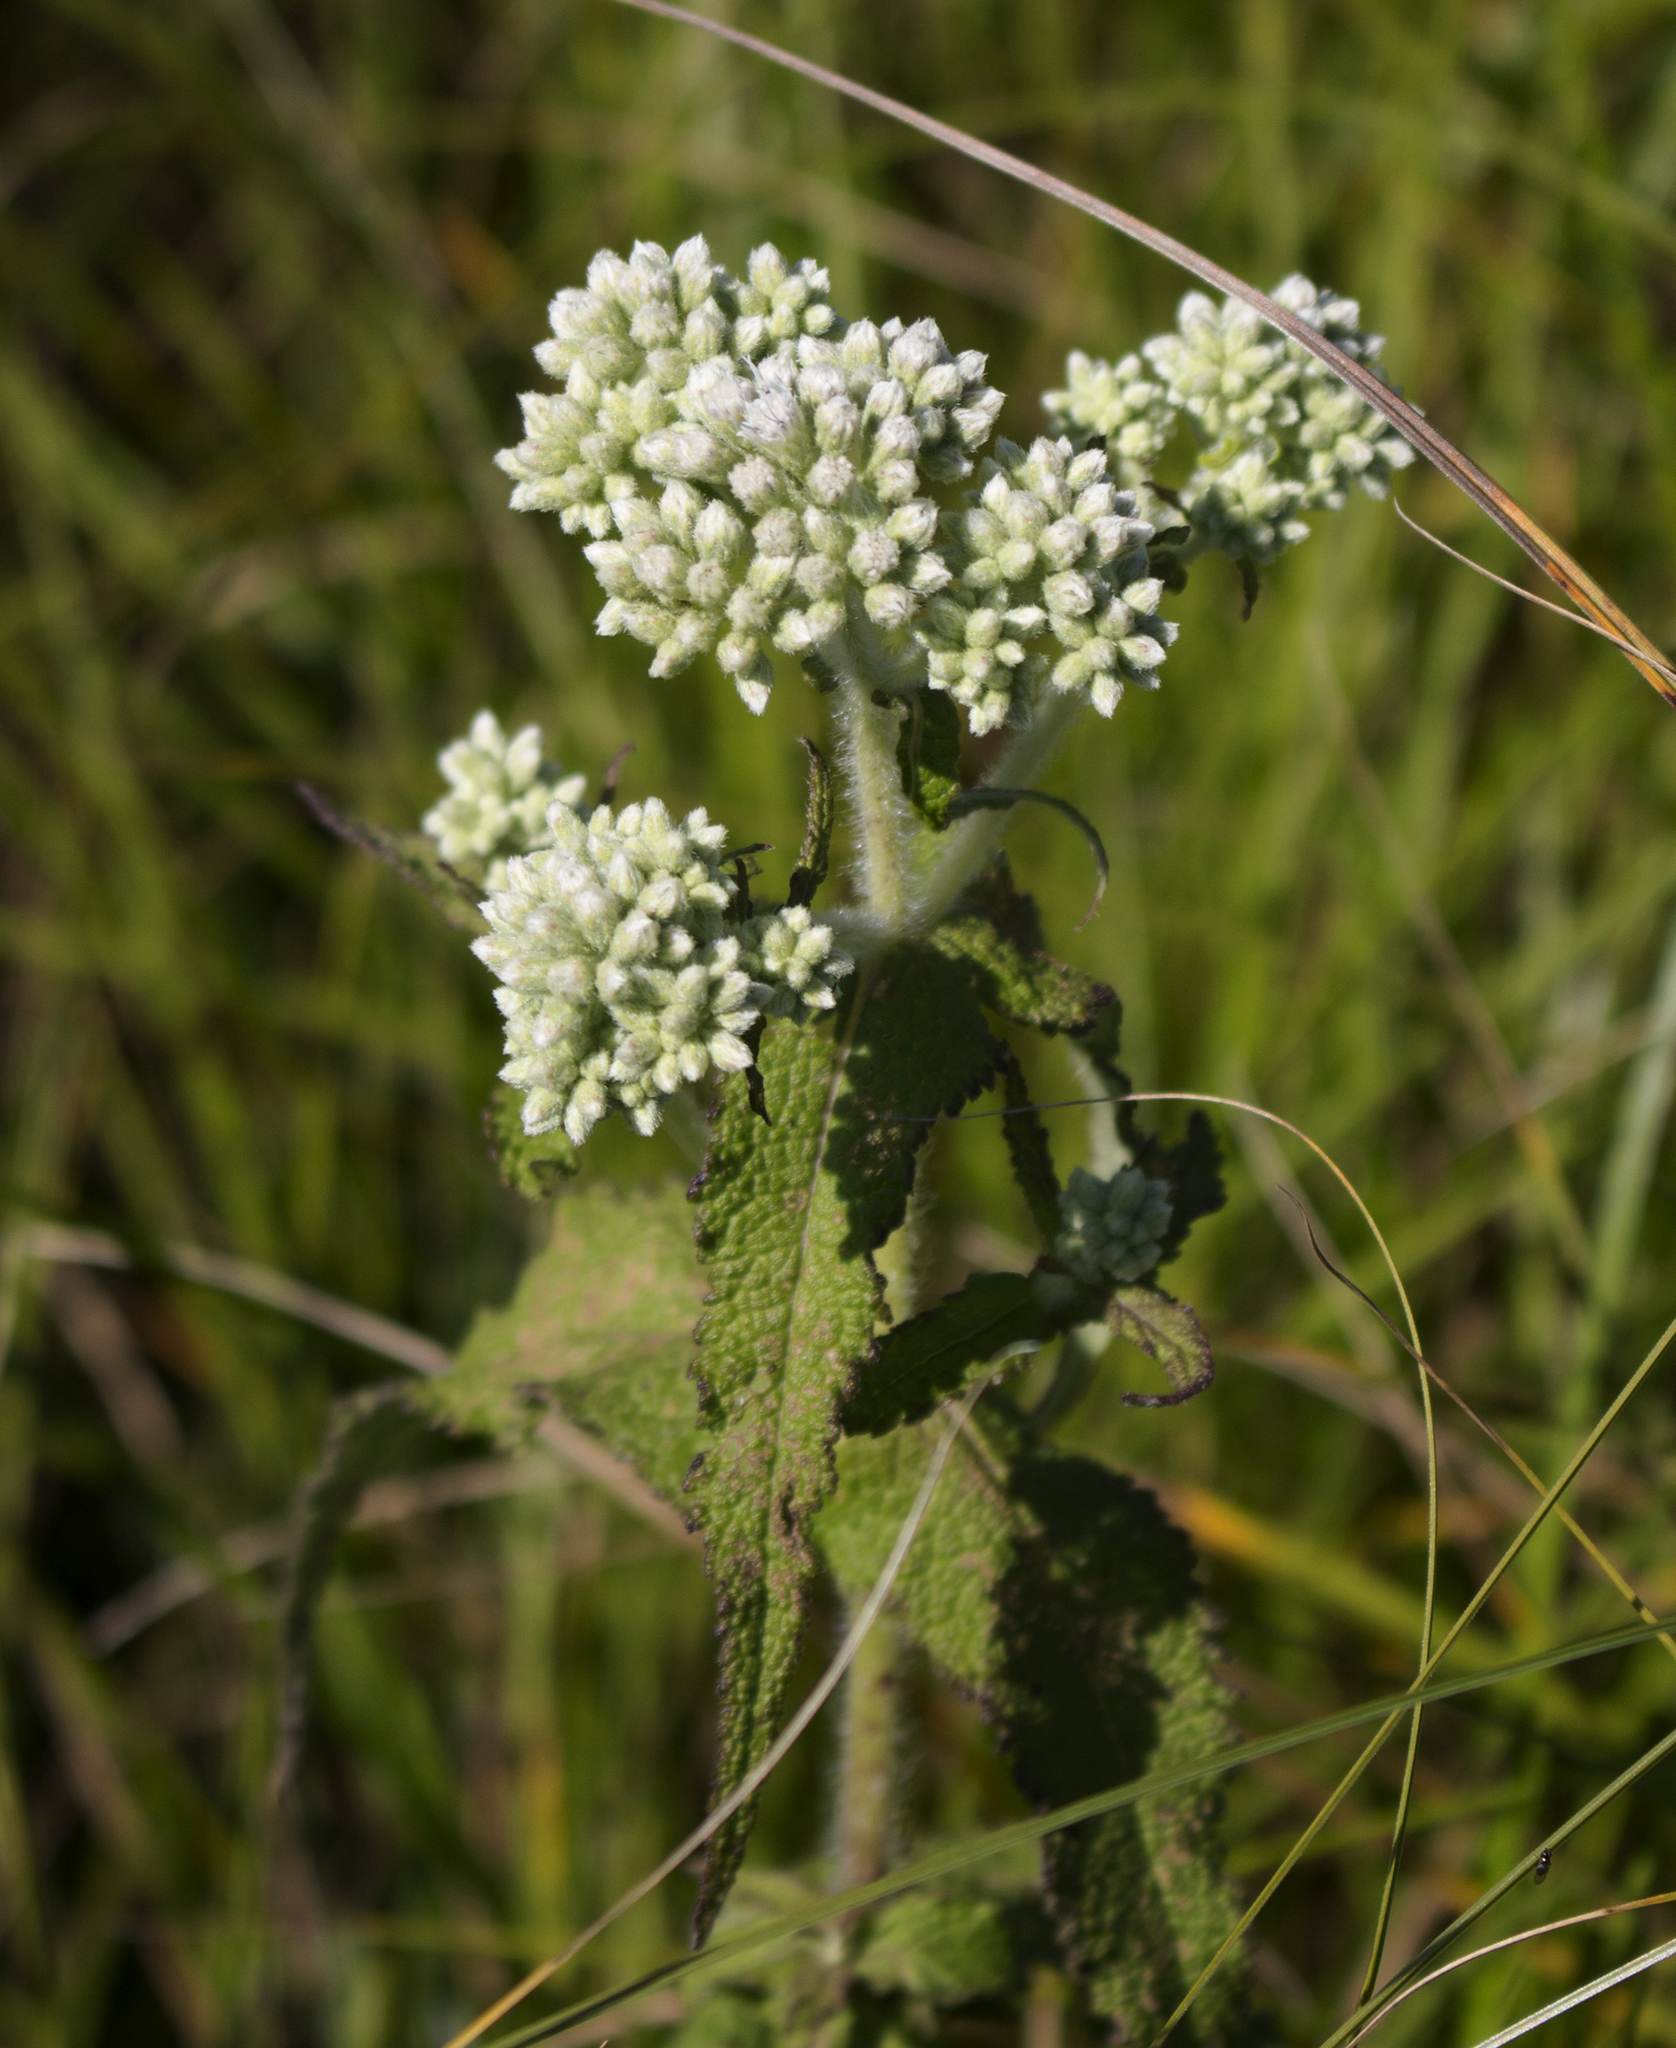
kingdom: Plantae
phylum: Tracheophyta
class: Magnoliopsida
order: Asterales
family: Asteraceae
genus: Eupatorium
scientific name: Eupatorium perfoliatum
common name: Boneset
